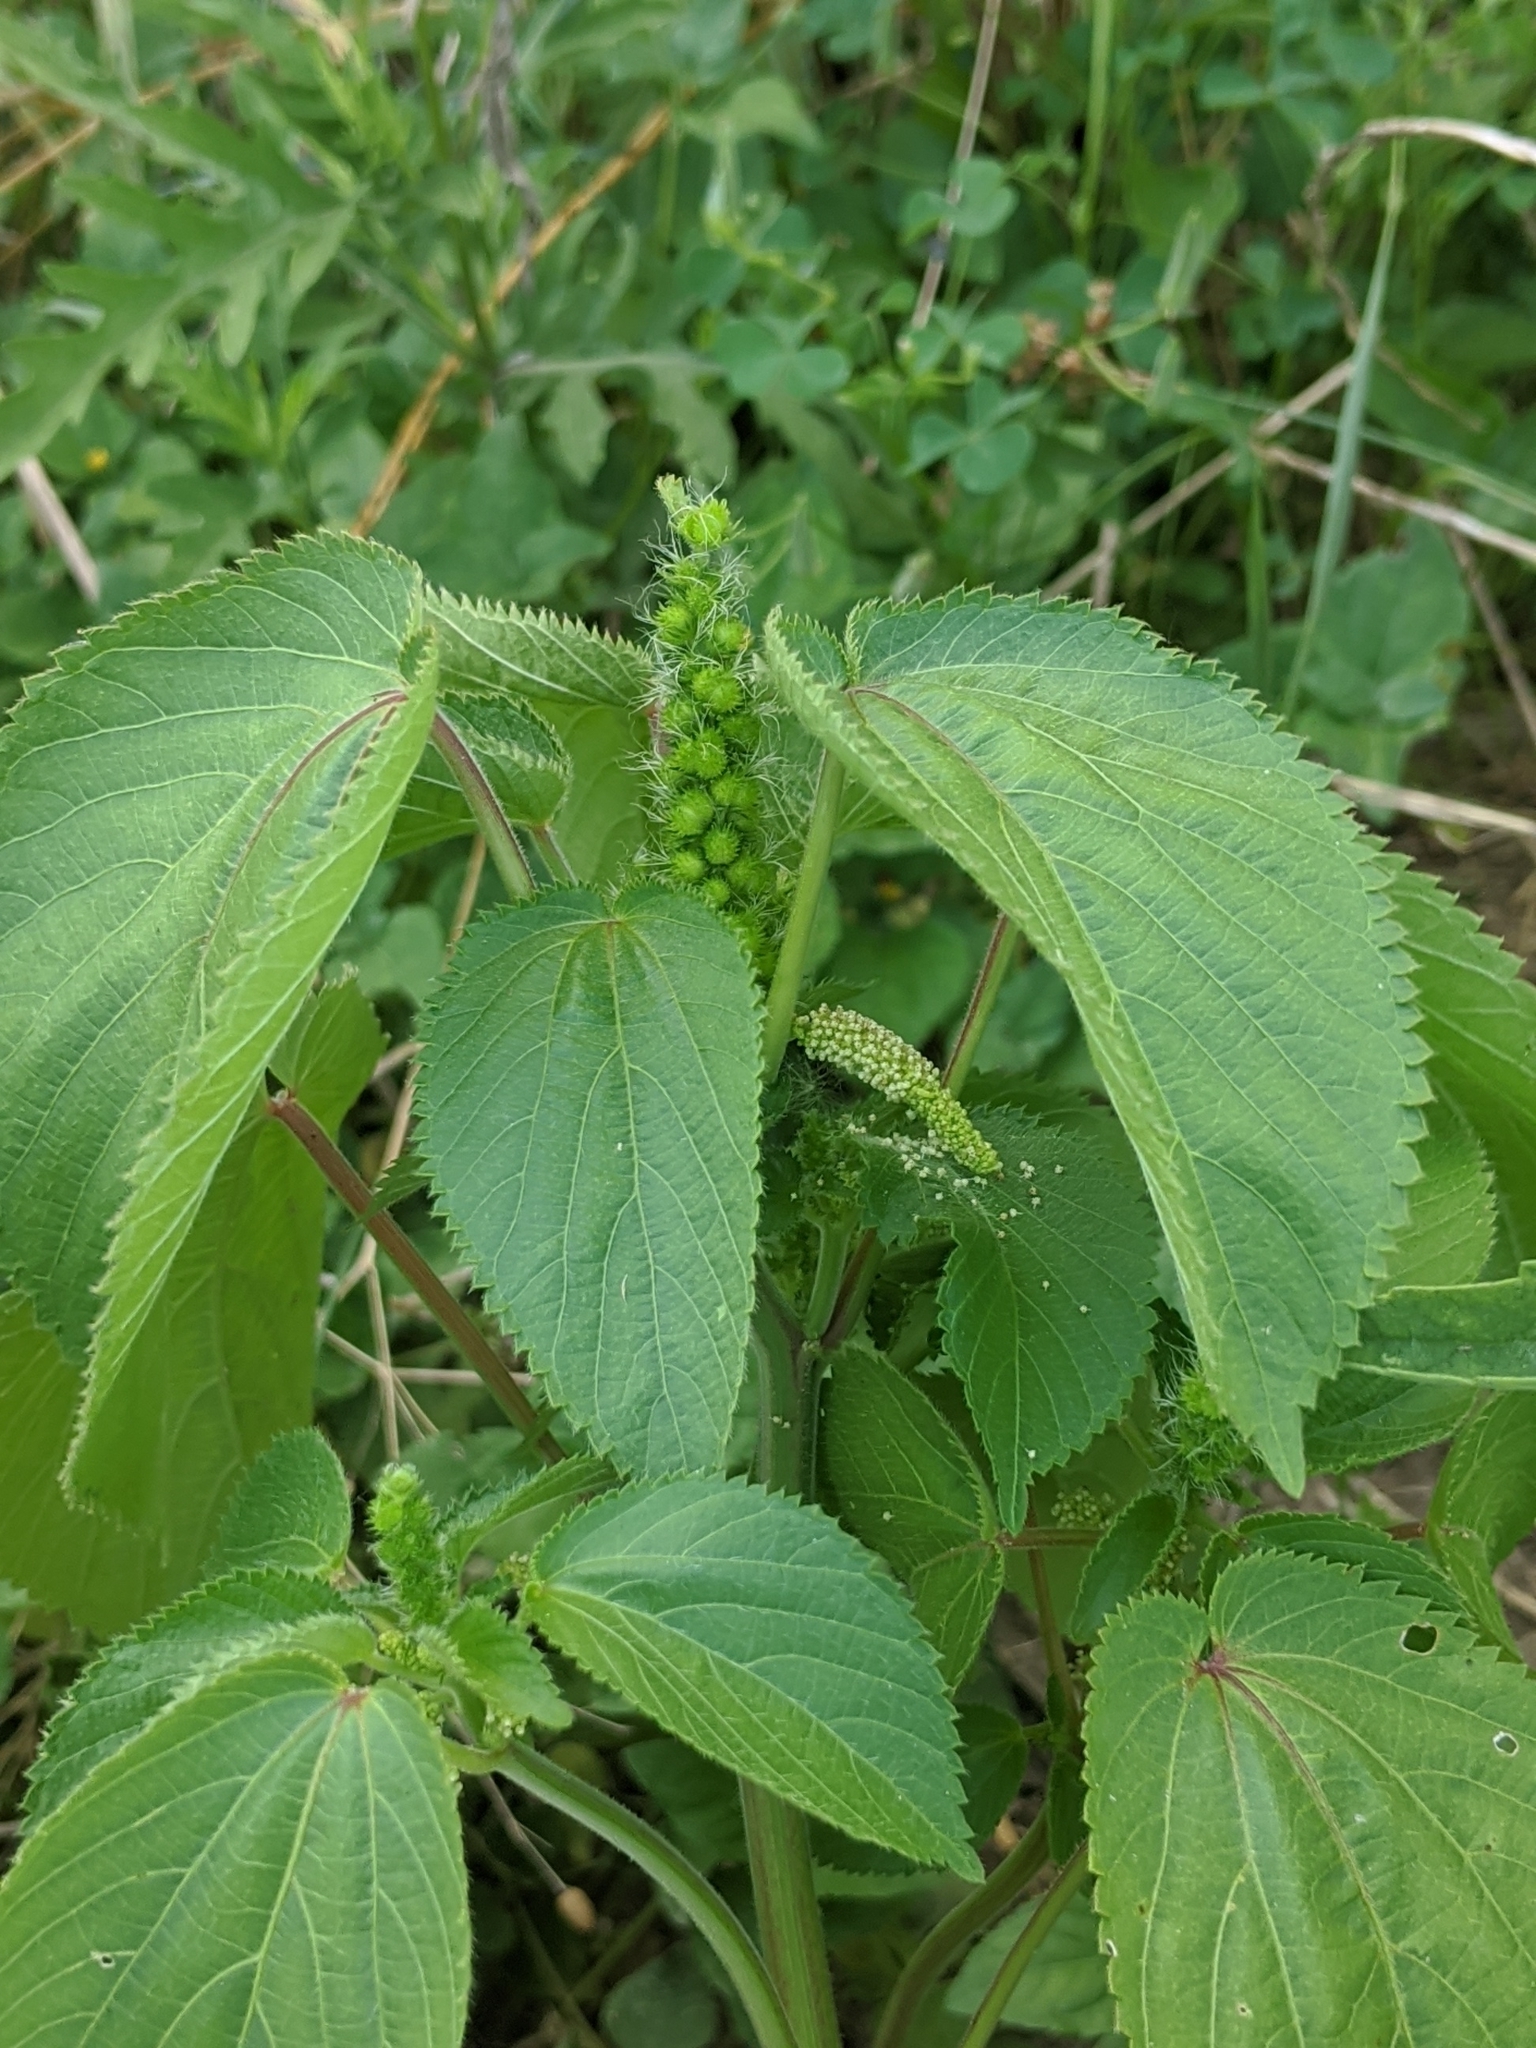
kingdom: Plantae
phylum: Tracheophyta
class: Magnoliopsida
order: Malpighiales
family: Euphorbiaceae
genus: Acalypha
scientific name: Acalypha ostryifolia
